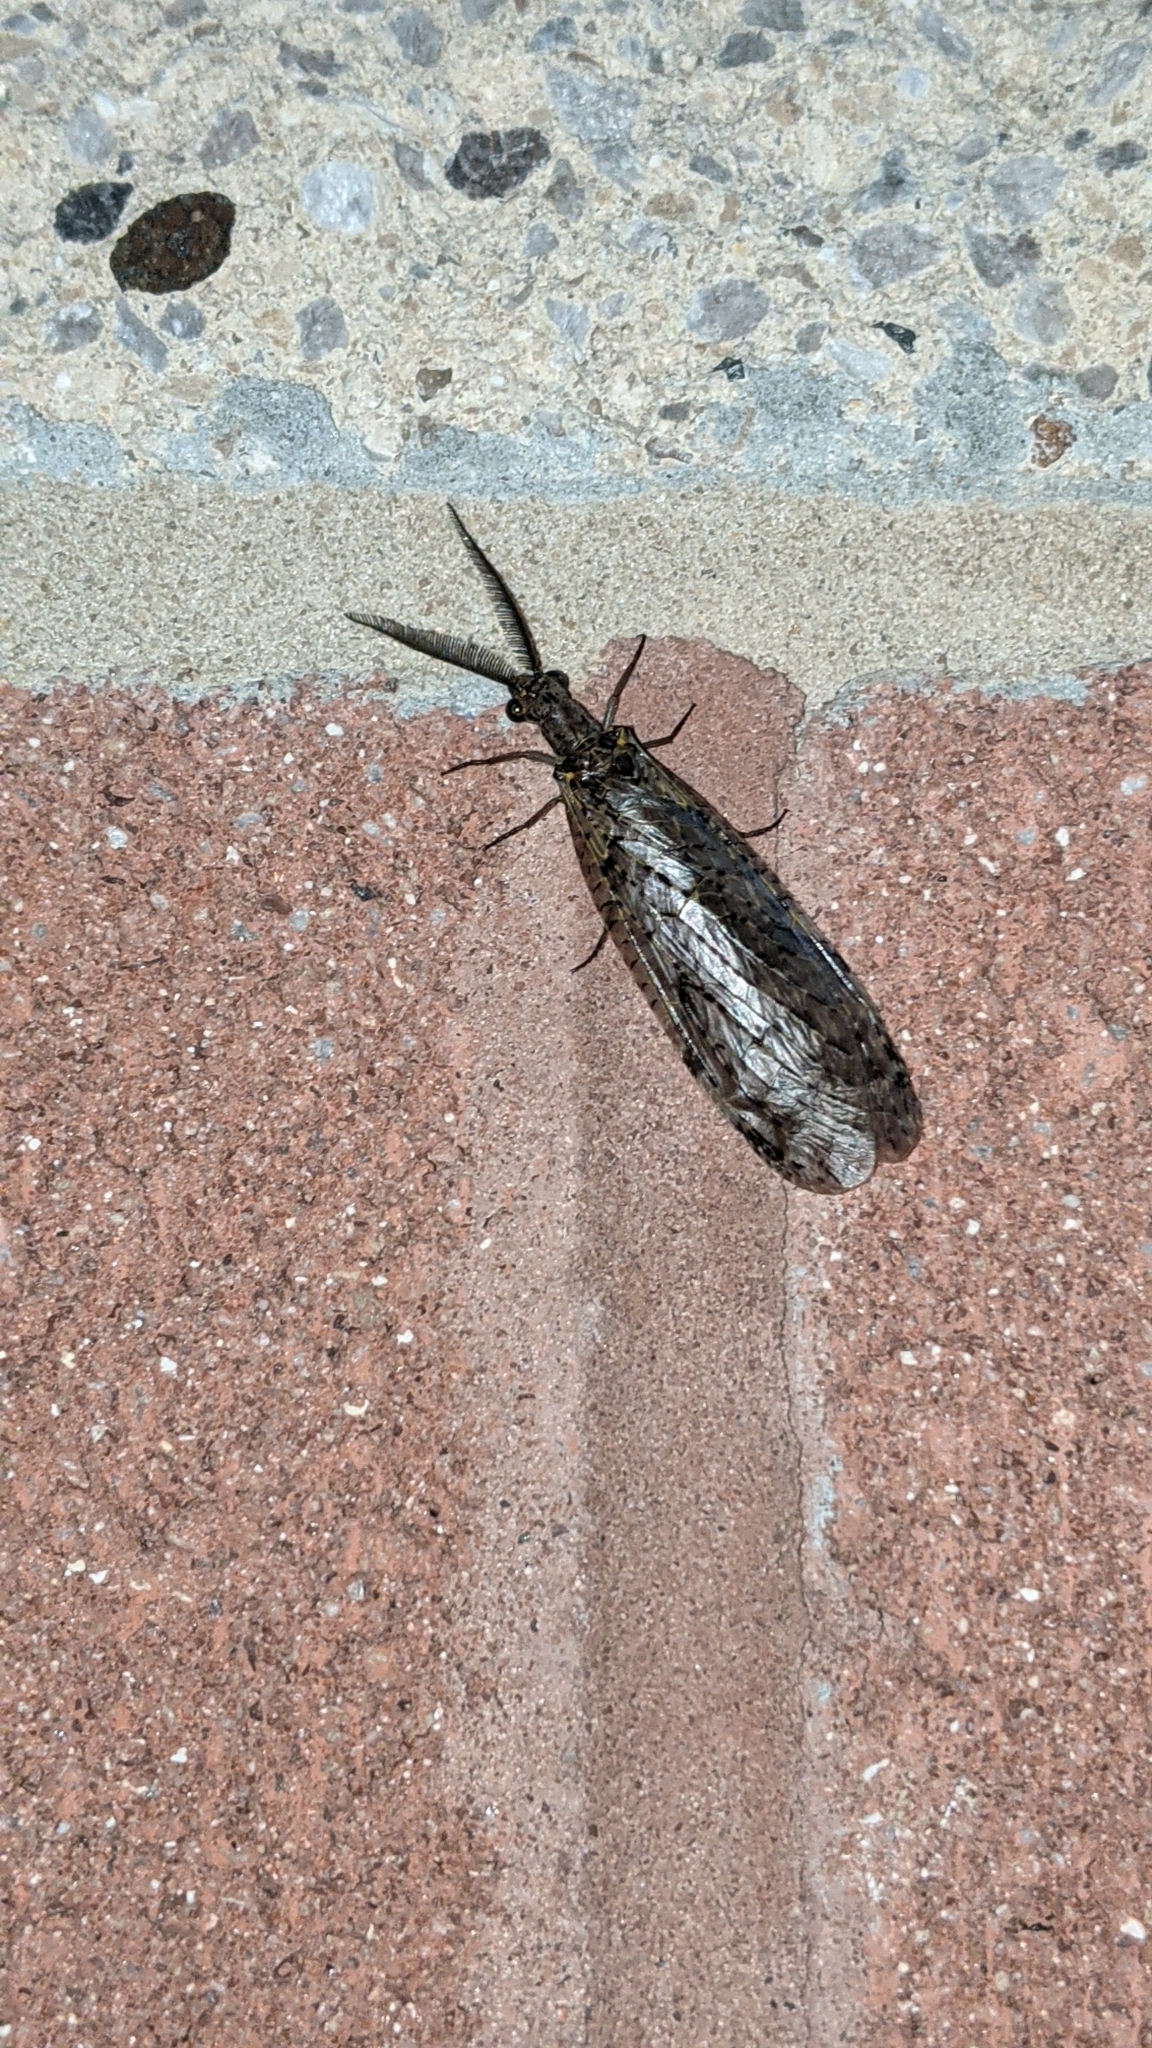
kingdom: Animalia
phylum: Arthropoda
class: Insecta
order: Megaloptera
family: Corydalidae
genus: Chauliodes
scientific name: Chauliodes rastricornis
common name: Spring fishfly
